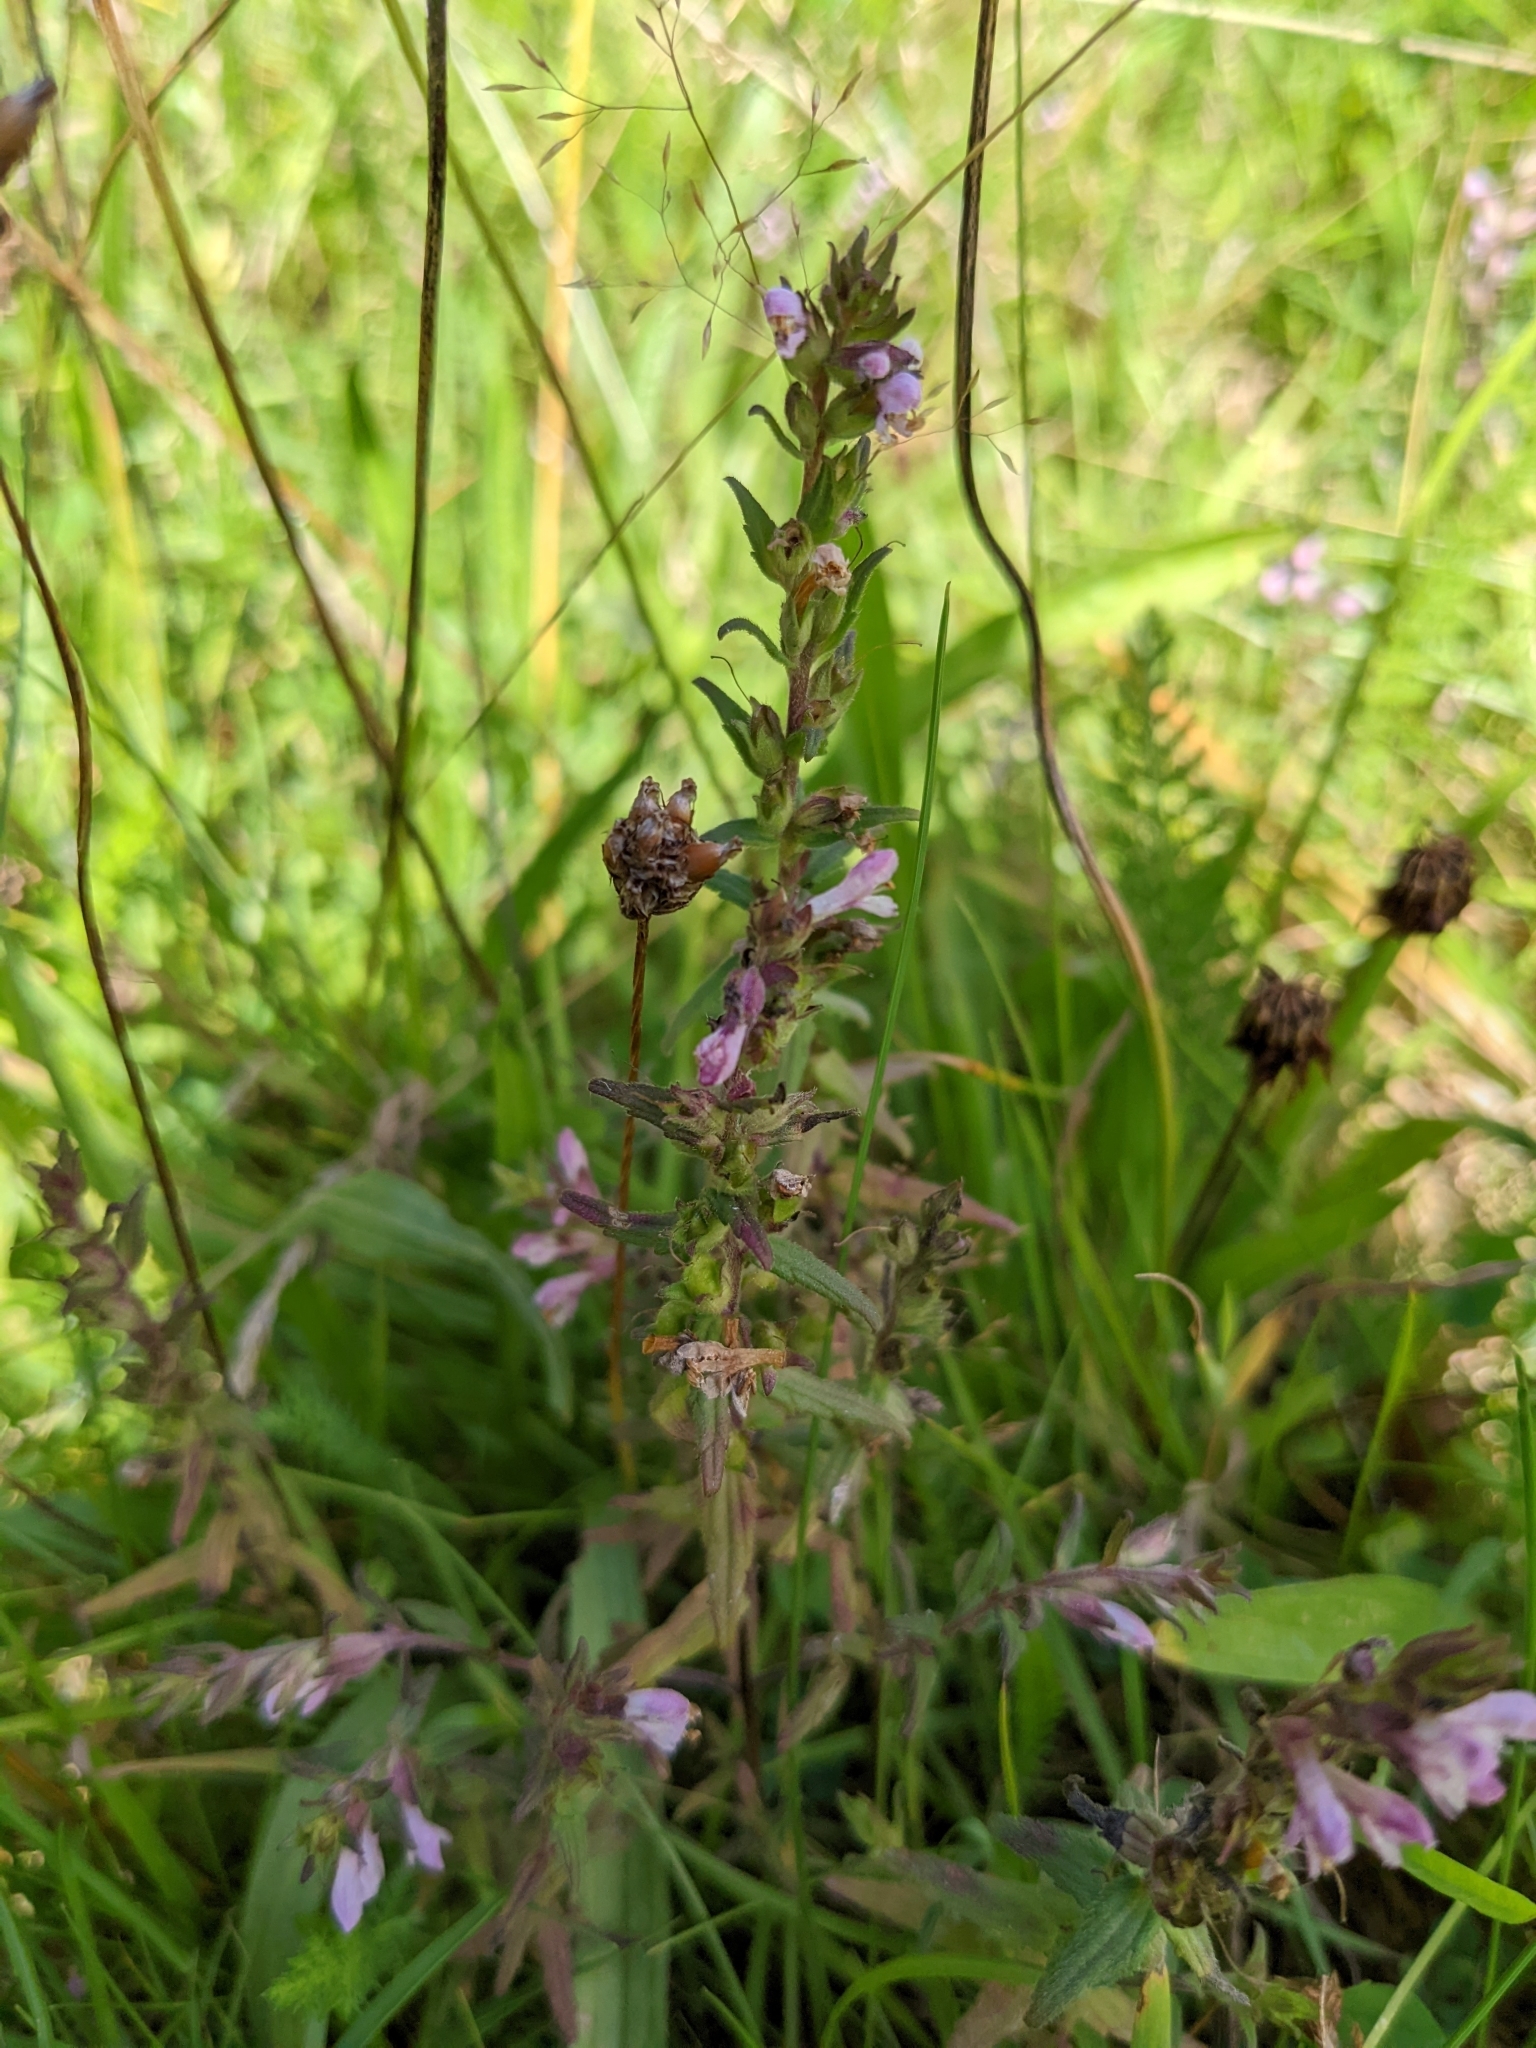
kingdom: Plantae
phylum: Tracheophyta
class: Magnoliopsida
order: Lamiales
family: Orobanchaceae
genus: Odontites
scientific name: Odontites vulgaris
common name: Broomrape
